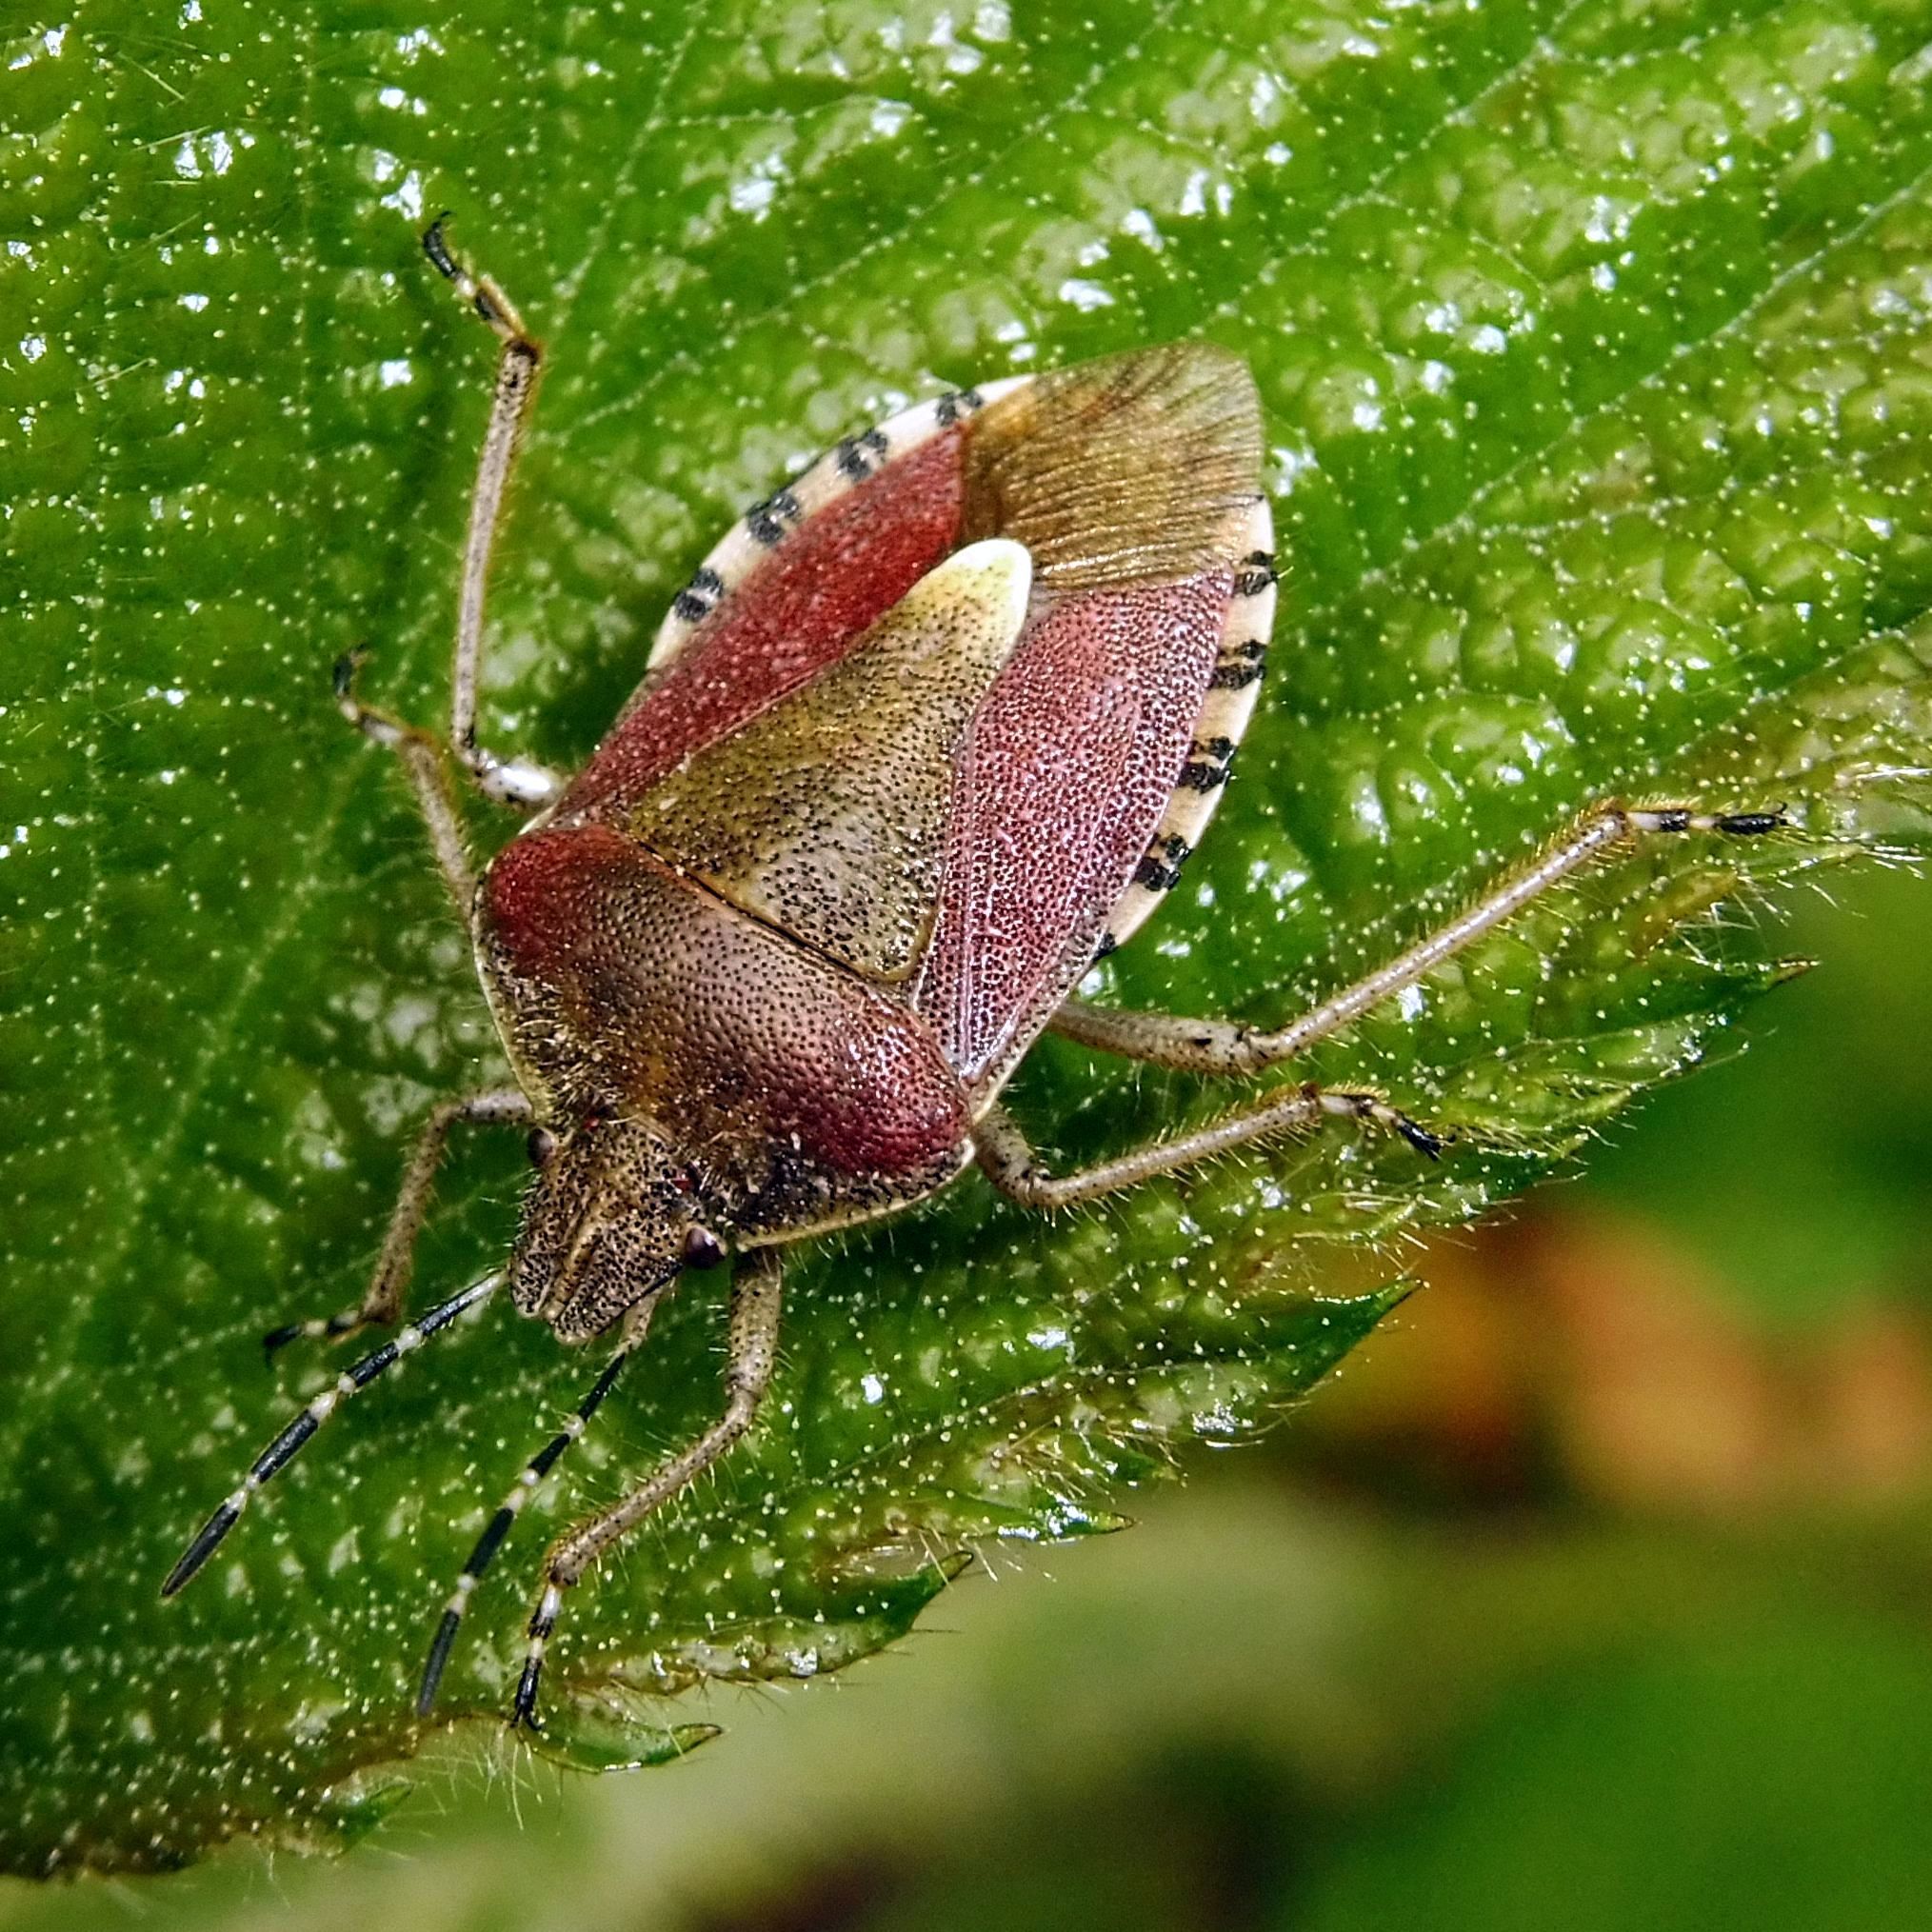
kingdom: Animalia
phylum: Arthropoda
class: Insecta
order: Hemiptera
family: Pentatomidae
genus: Dolycoris
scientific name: Dolycoris baccarum
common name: Sloe bug
